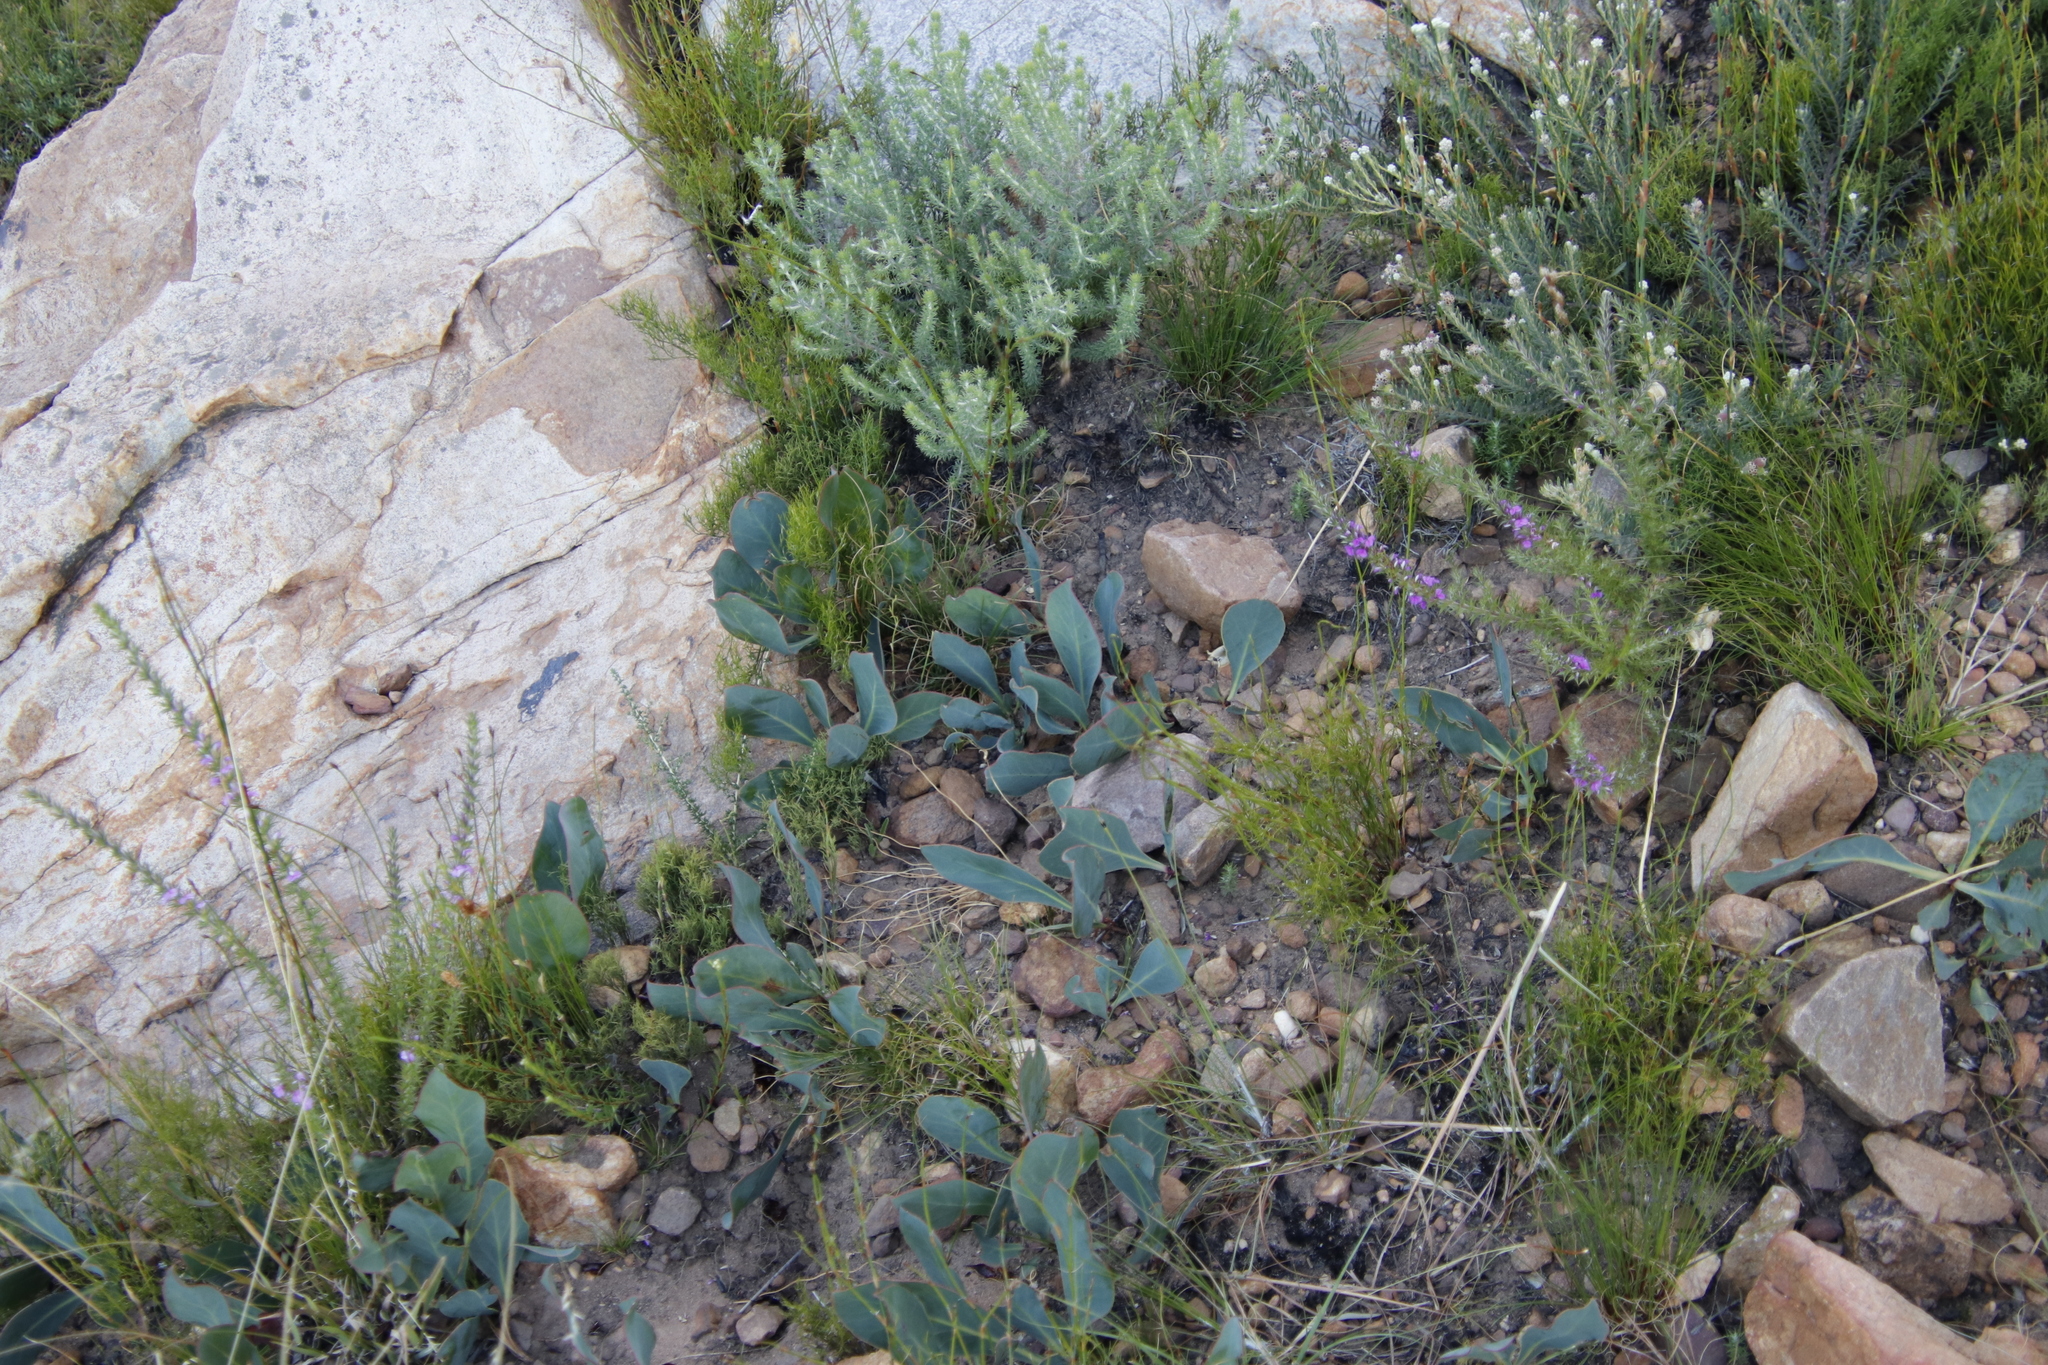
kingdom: Plantae
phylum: Tracheophyta
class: Magnoliopsida
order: Proteales
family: Proteaceae
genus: Protea
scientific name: Protea acaulos
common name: Common ground sugarbush
